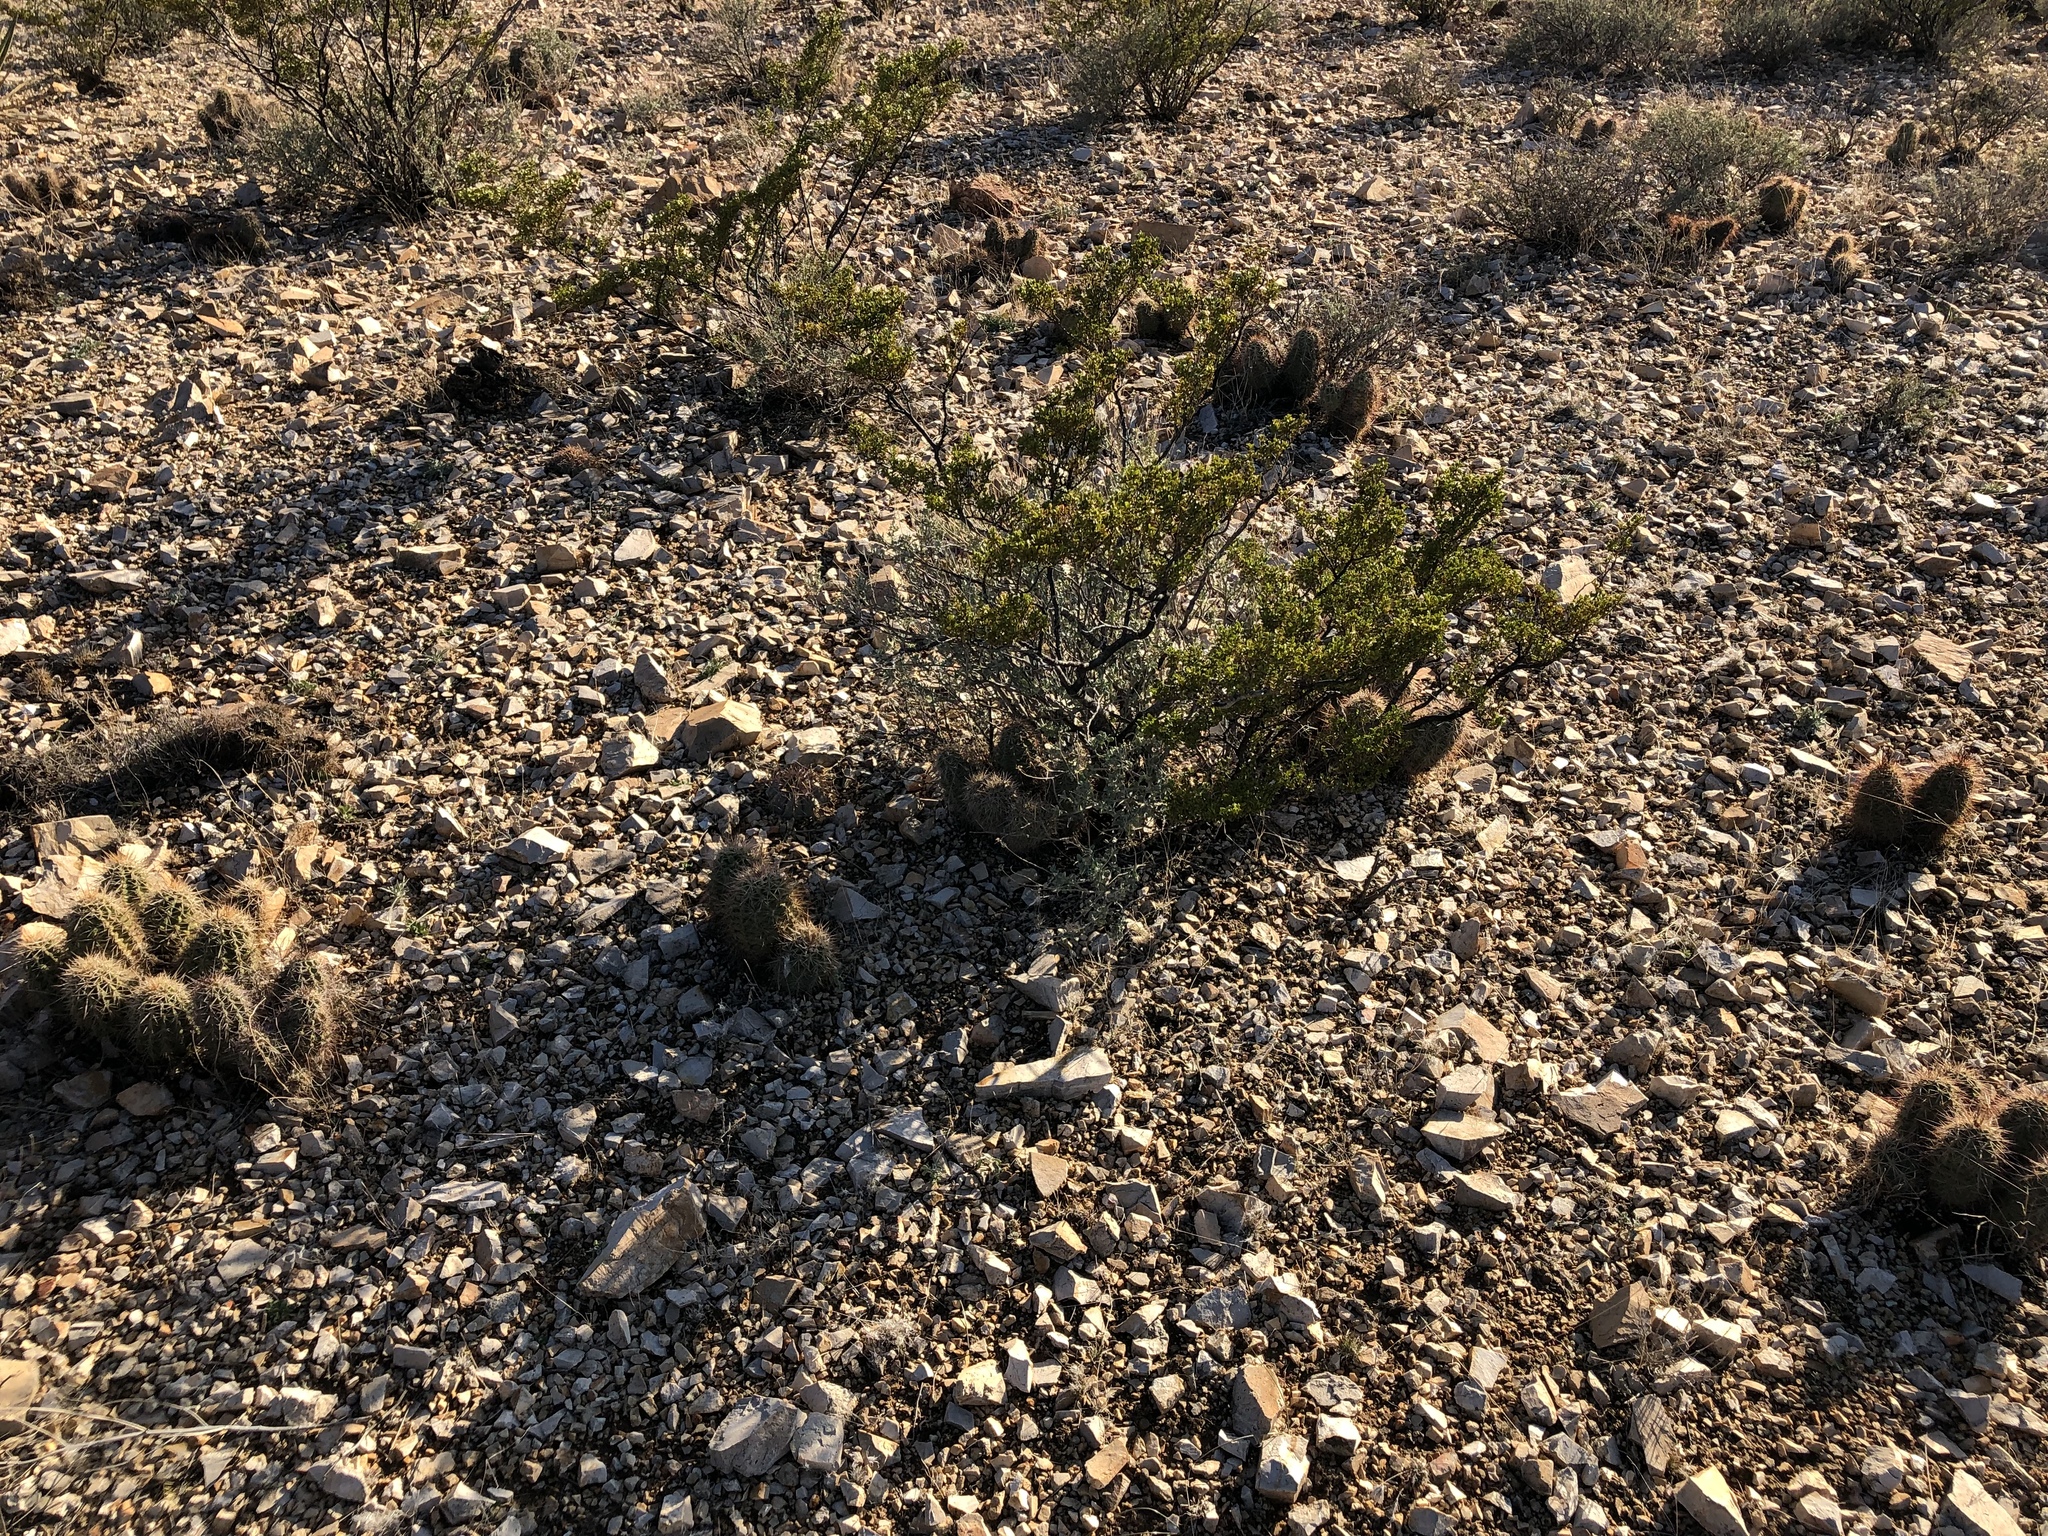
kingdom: Plantae
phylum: Tracheophyta
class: Magnoliopsida
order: Caryophyllales
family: Cactaceae
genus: Echinocactus
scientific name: Echinocactus horizonthalonius
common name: Devilshead
